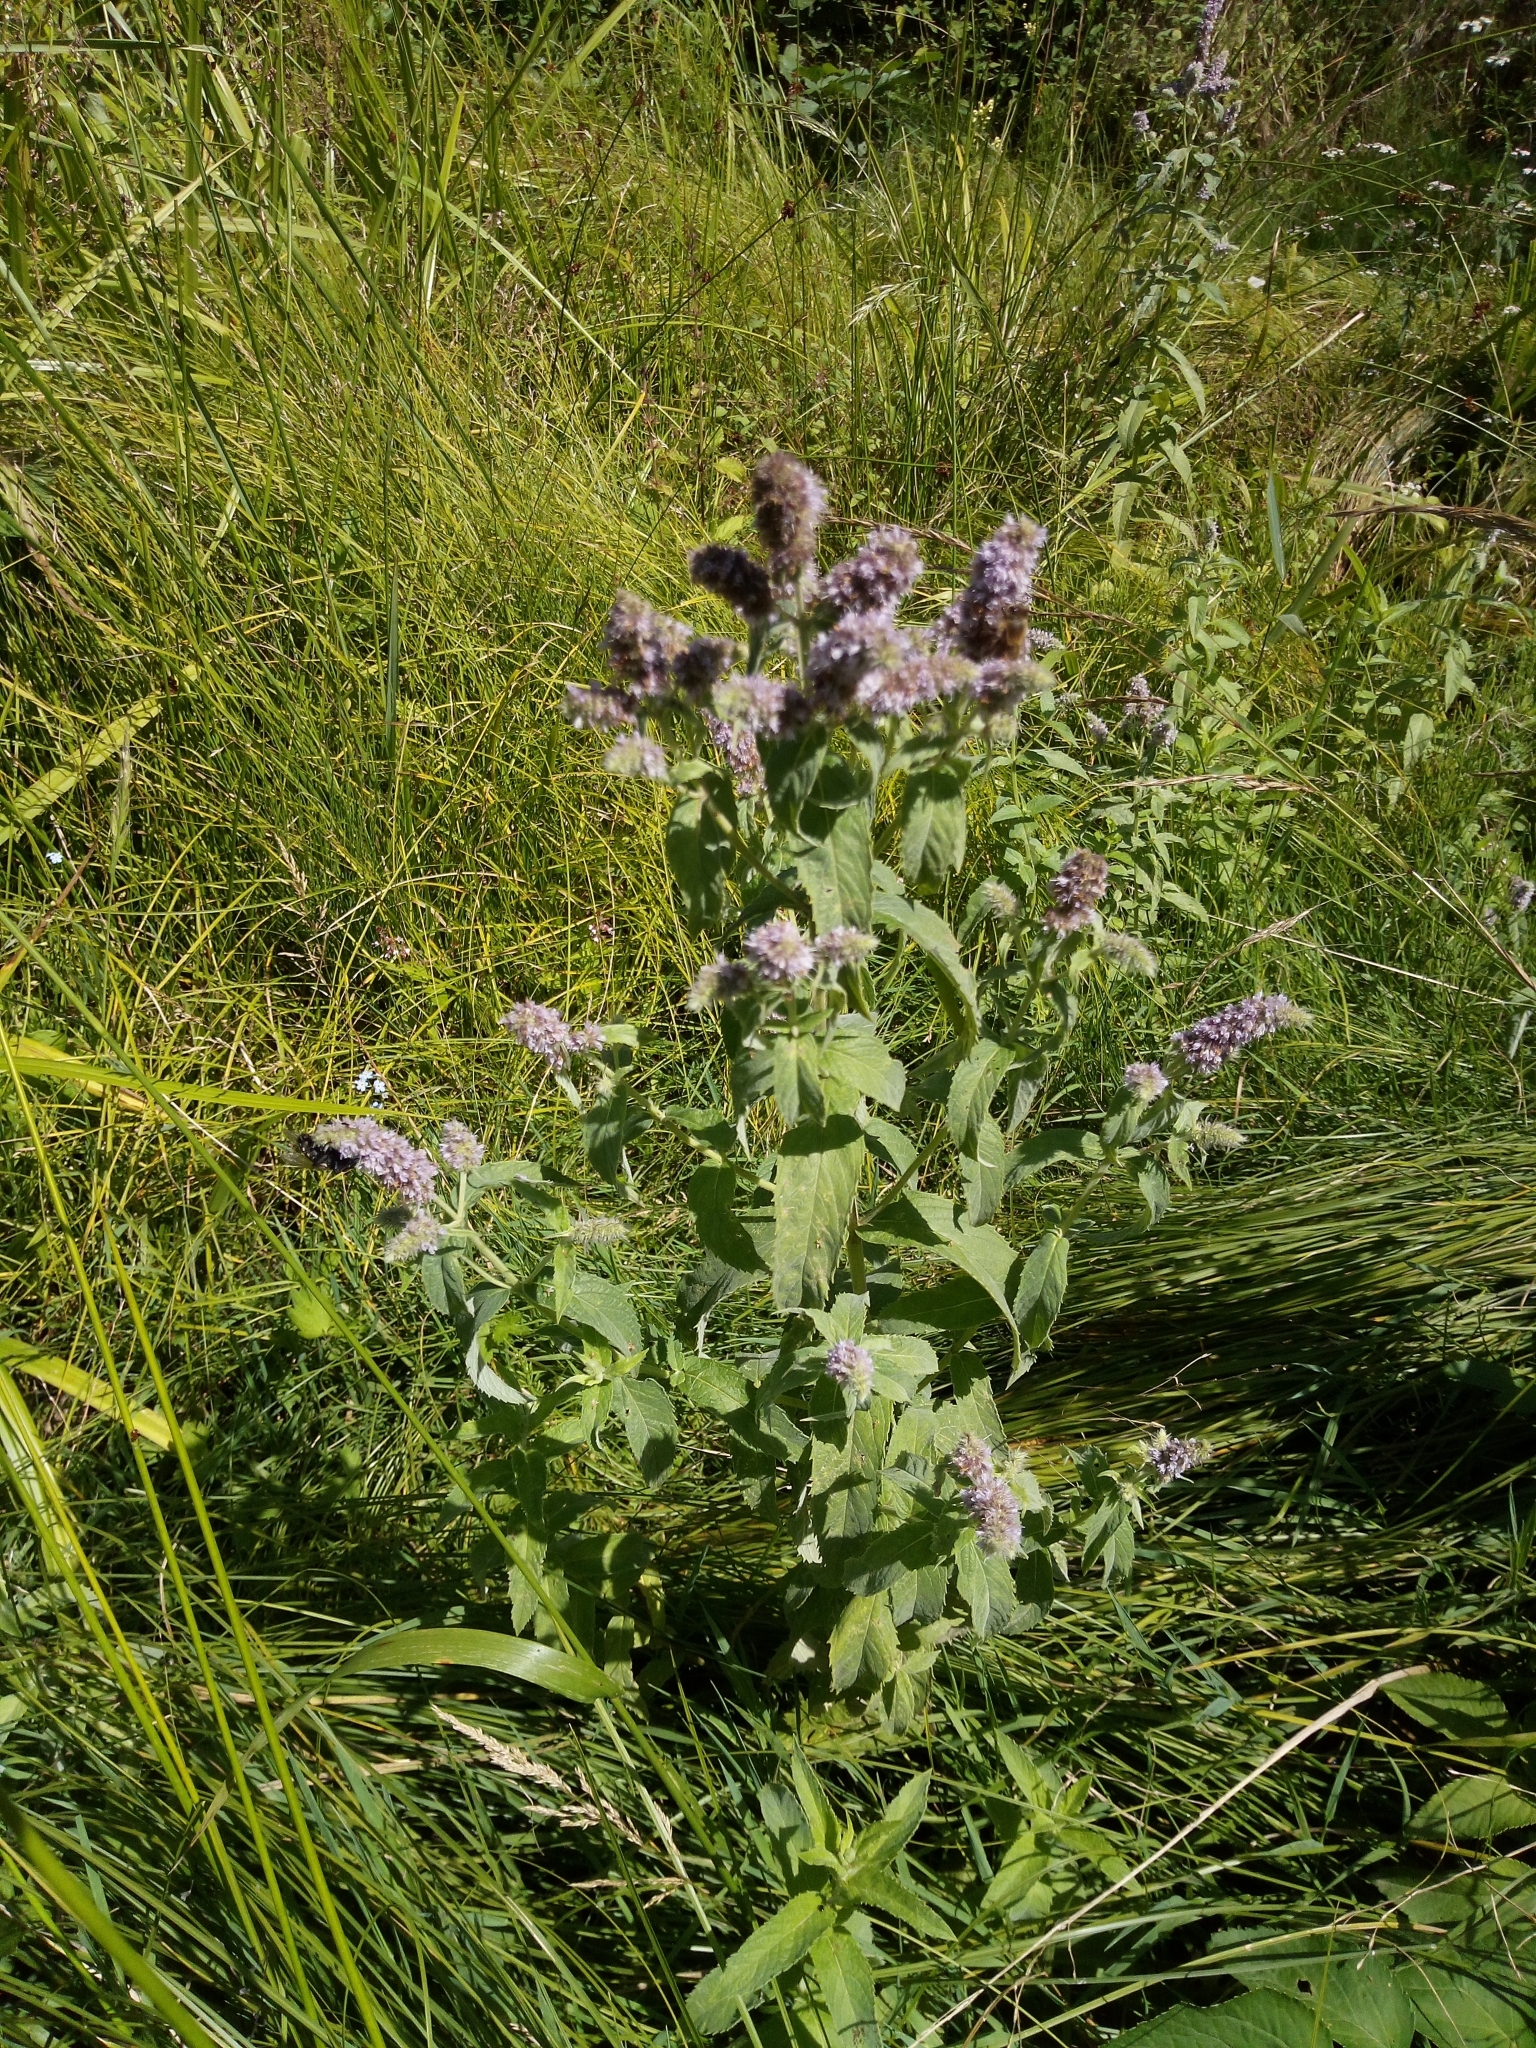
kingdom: Plantae
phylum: Tracheophyta
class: Magnoliopsida
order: Lamiales
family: Lamiaceae
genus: Mentha
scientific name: Mentha longifolia
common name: Horse mint
